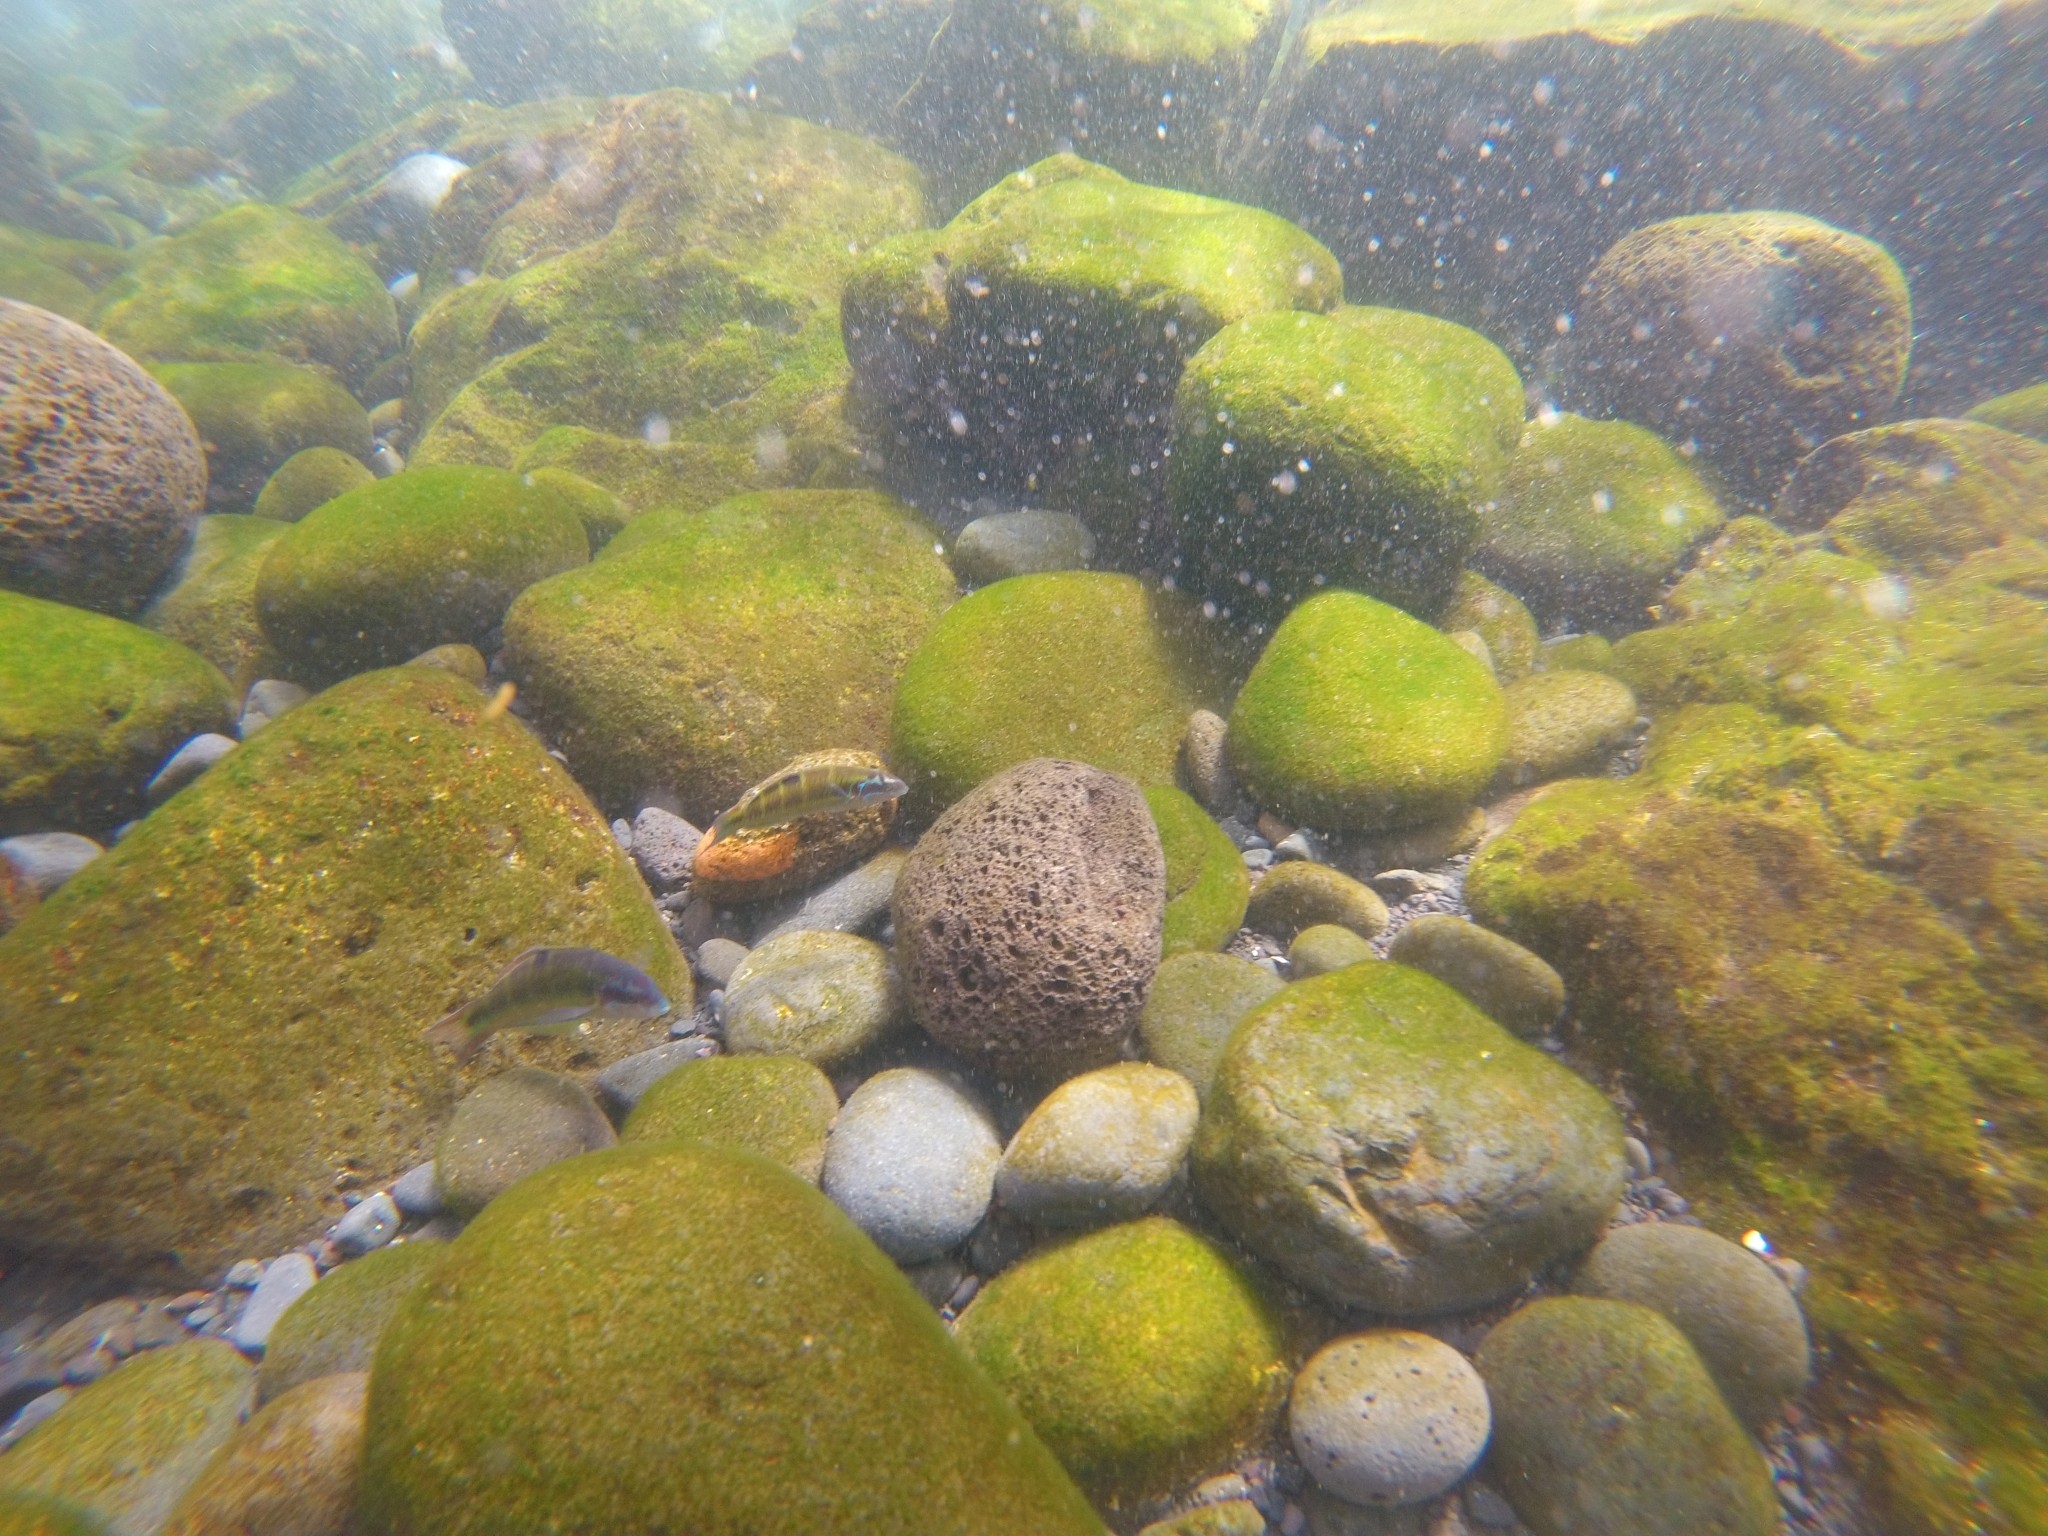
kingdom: Animalia
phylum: Chordata
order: Perciformes
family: Labridae
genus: Thalassoma
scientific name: Thalassoma pavo
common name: Ornate wrasse
